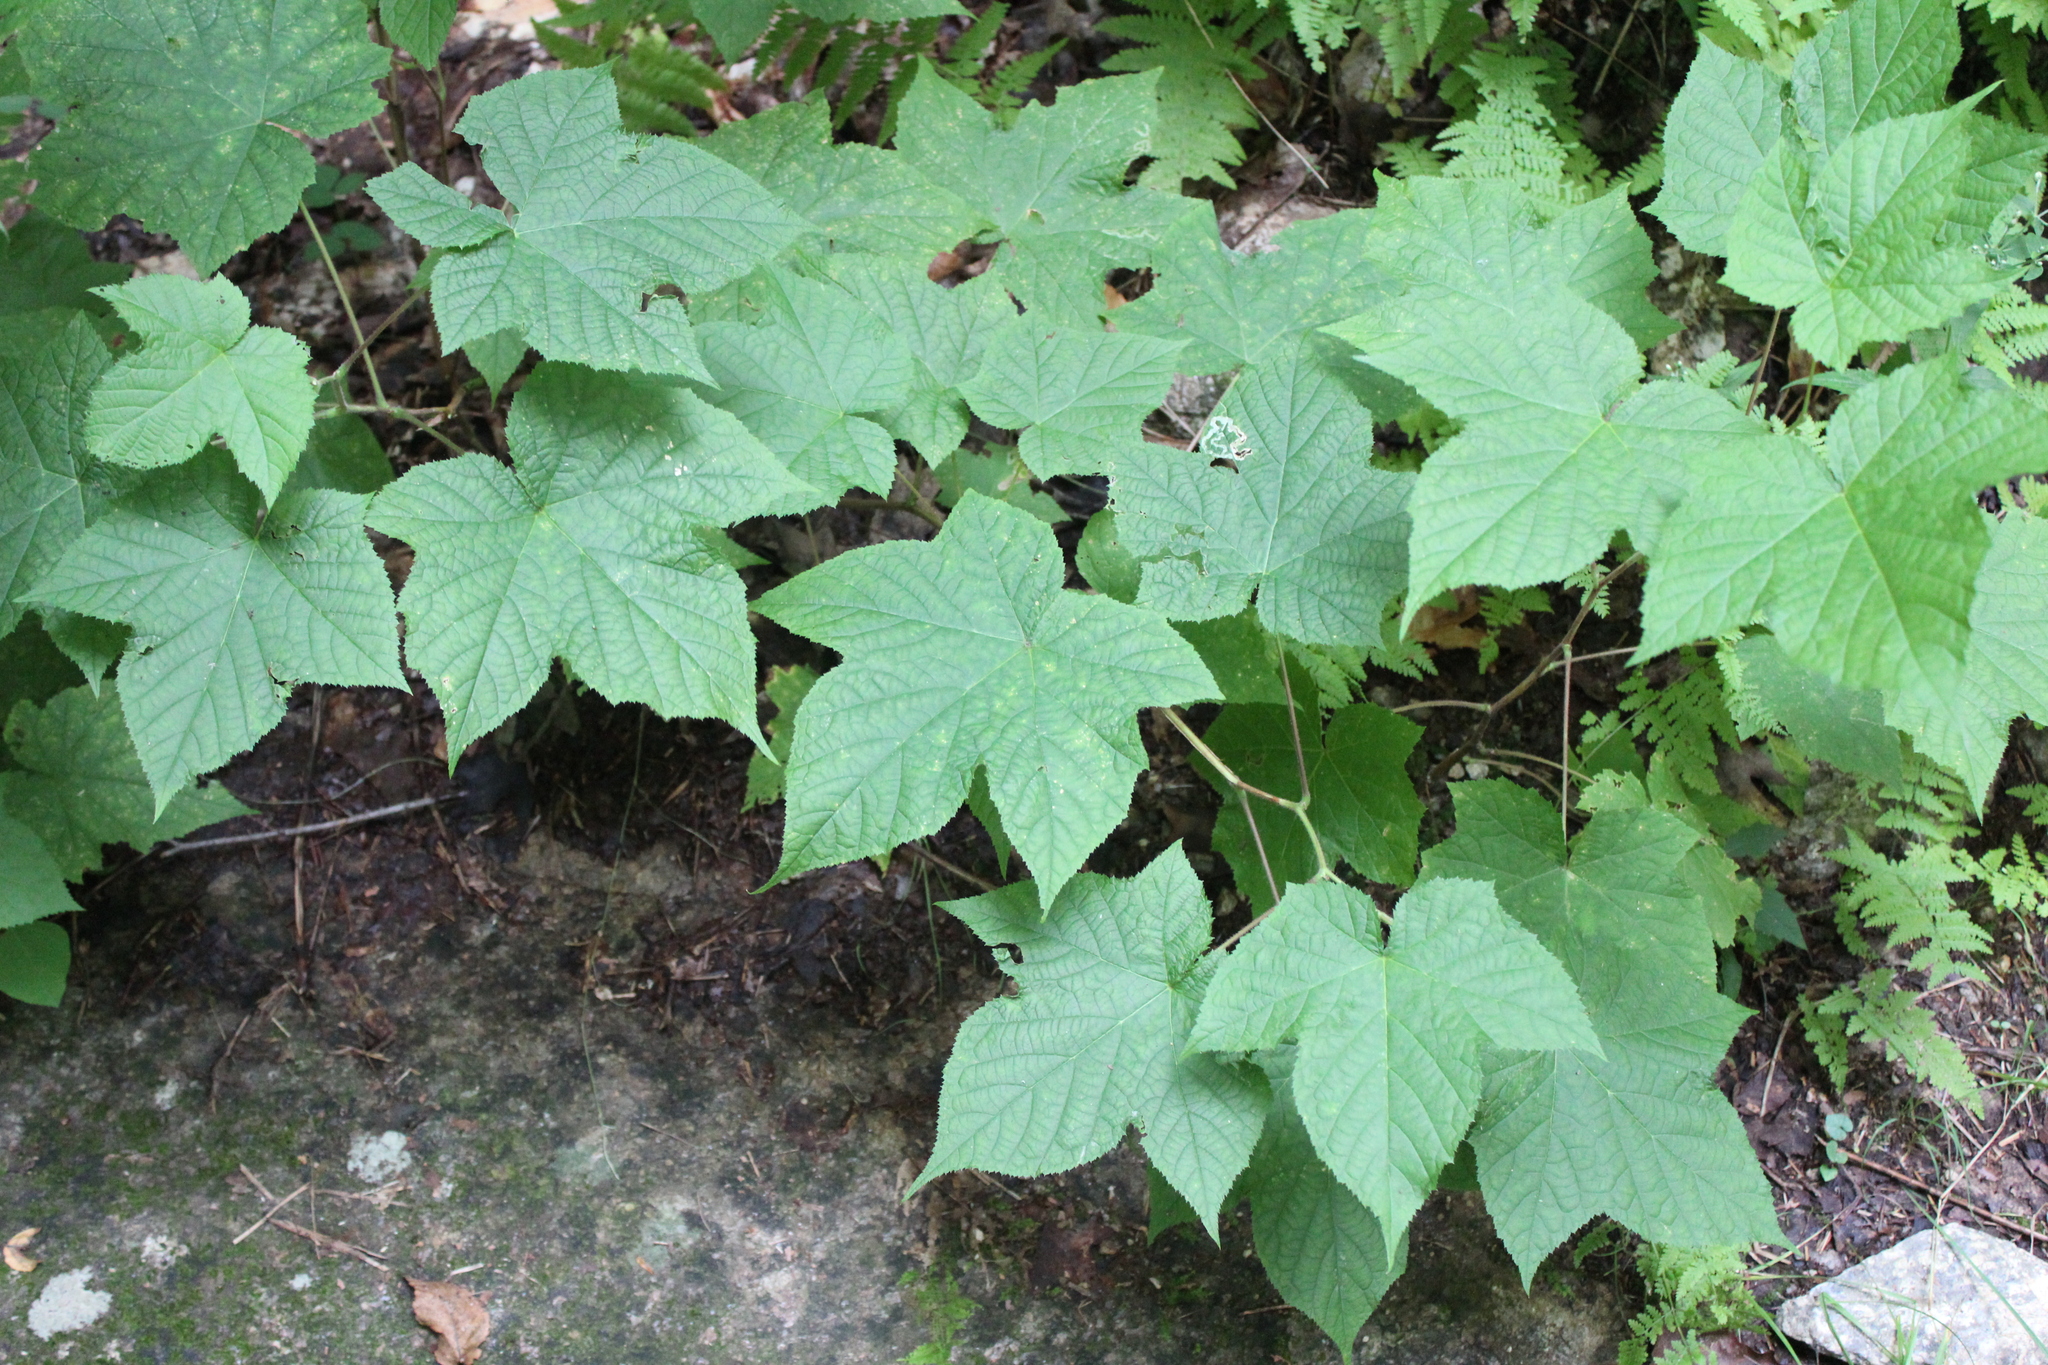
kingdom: Plantae
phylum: Tracheophyta
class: Magnoliopsida
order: Rosales
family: Rosaceae
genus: Rubus
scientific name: Rubus odoratus
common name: Purple-flowered raspberry
